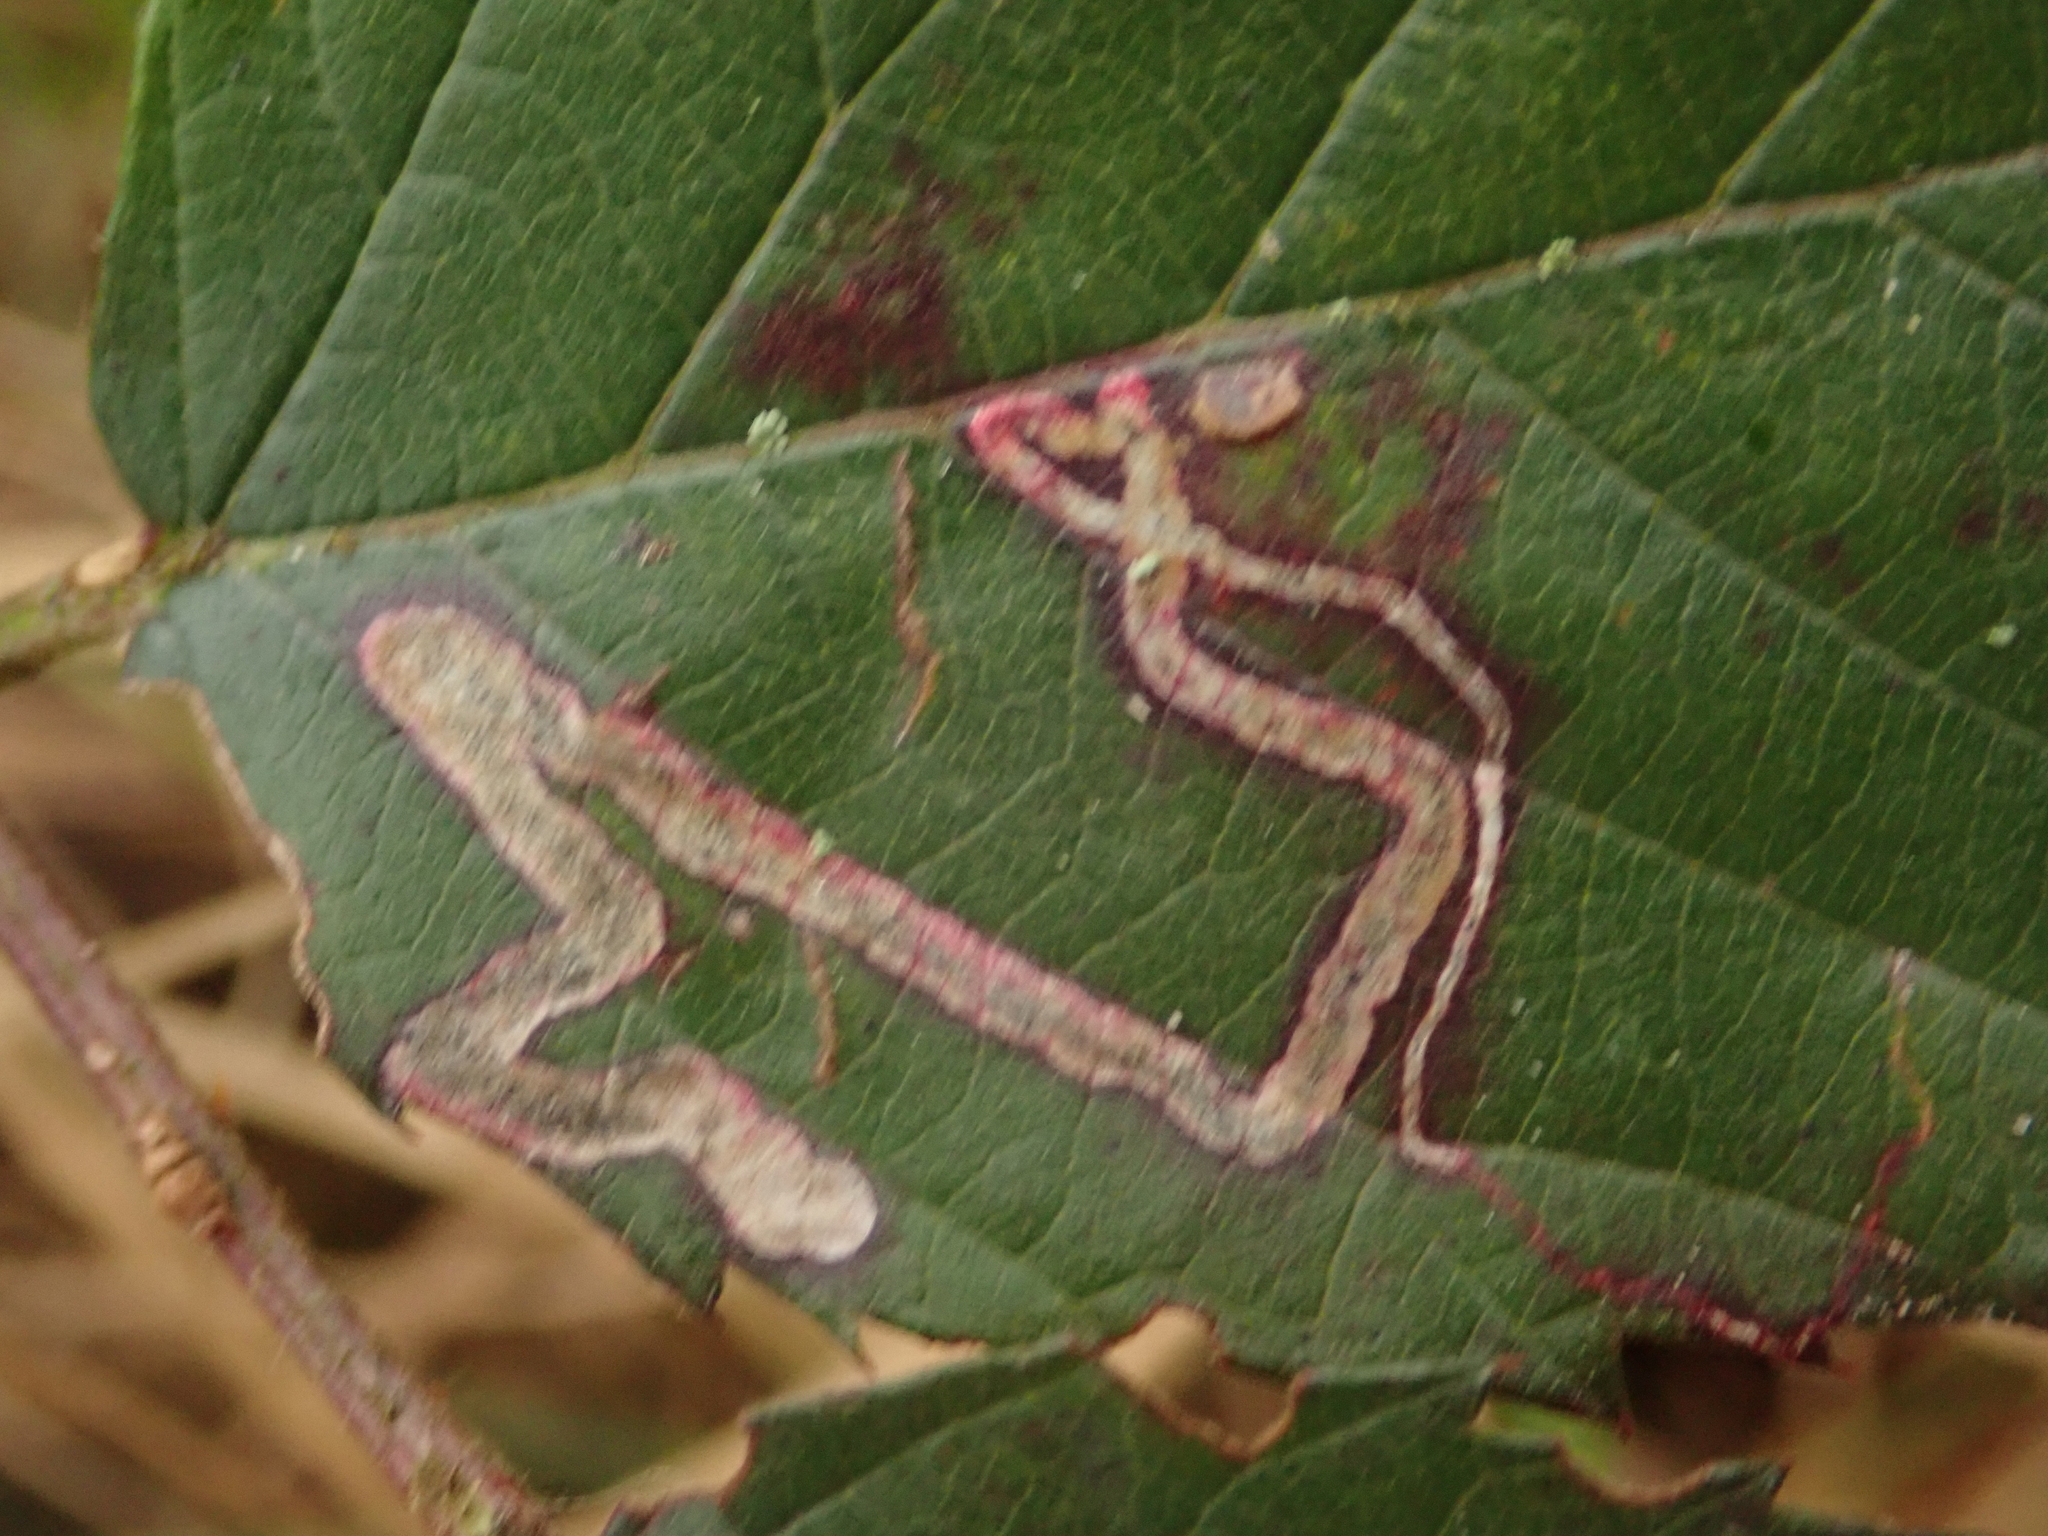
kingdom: Animalia
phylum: Arthropoda
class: Insecta
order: Lepidoptera
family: Nepticulidae
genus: Stigmella
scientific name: Stigmella splendidissimella
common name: Glossy bramble pigmy
